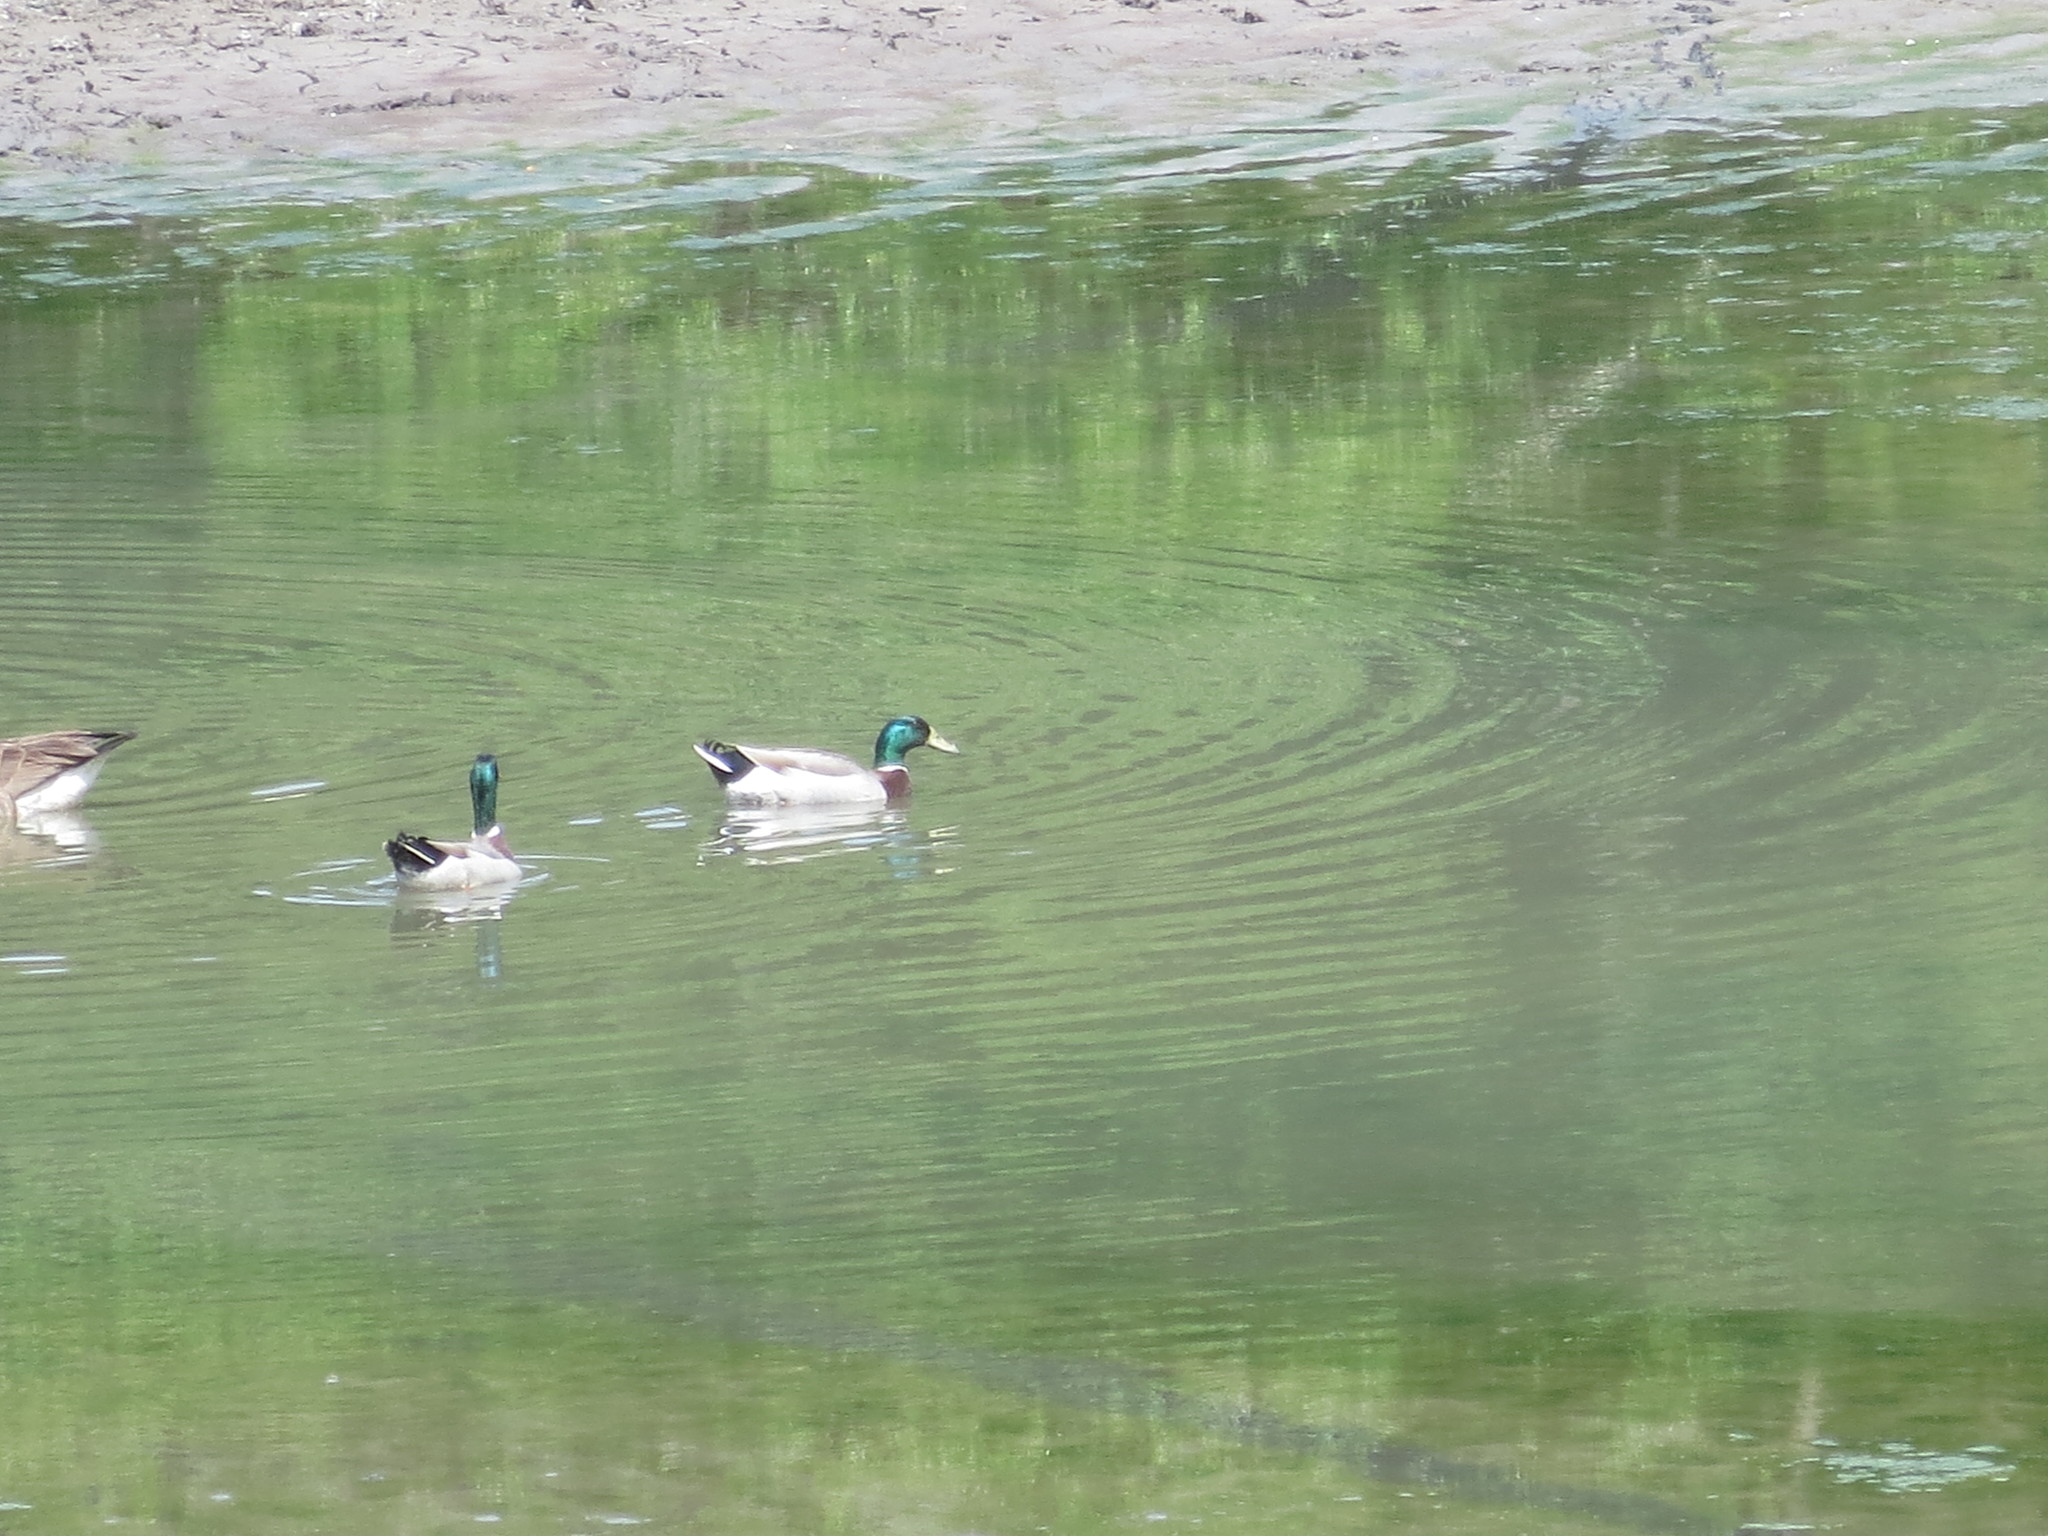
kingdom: Animalia
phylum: Chordata
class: Aves
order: Anseriformes
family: Anatidae
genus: Anas
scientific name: Anas platyrhynchos
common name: Mallard
